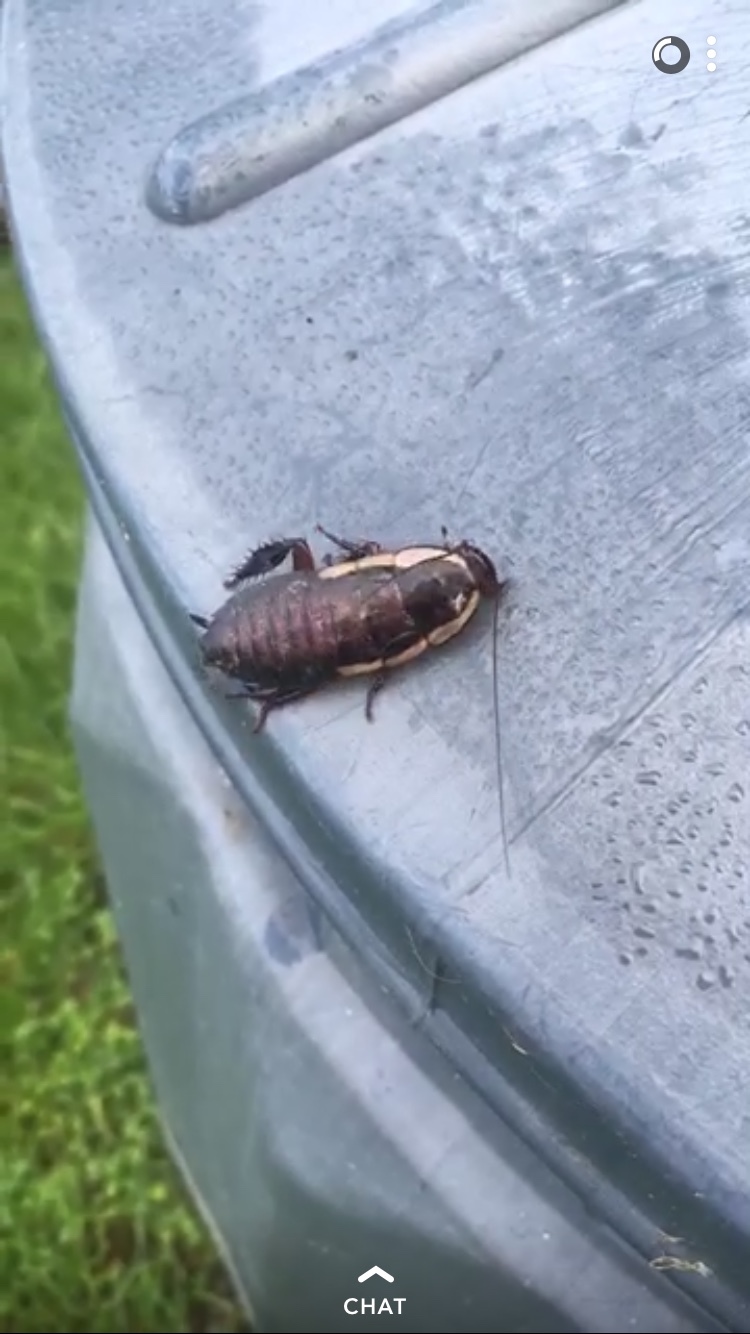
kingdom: Animalia
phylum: Arthropoda
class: Insecta
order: Blattodea
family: Blattidae
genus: Drymaplaneta
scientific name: Drymaplaneta semivitta
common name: Gisborne cockroach
